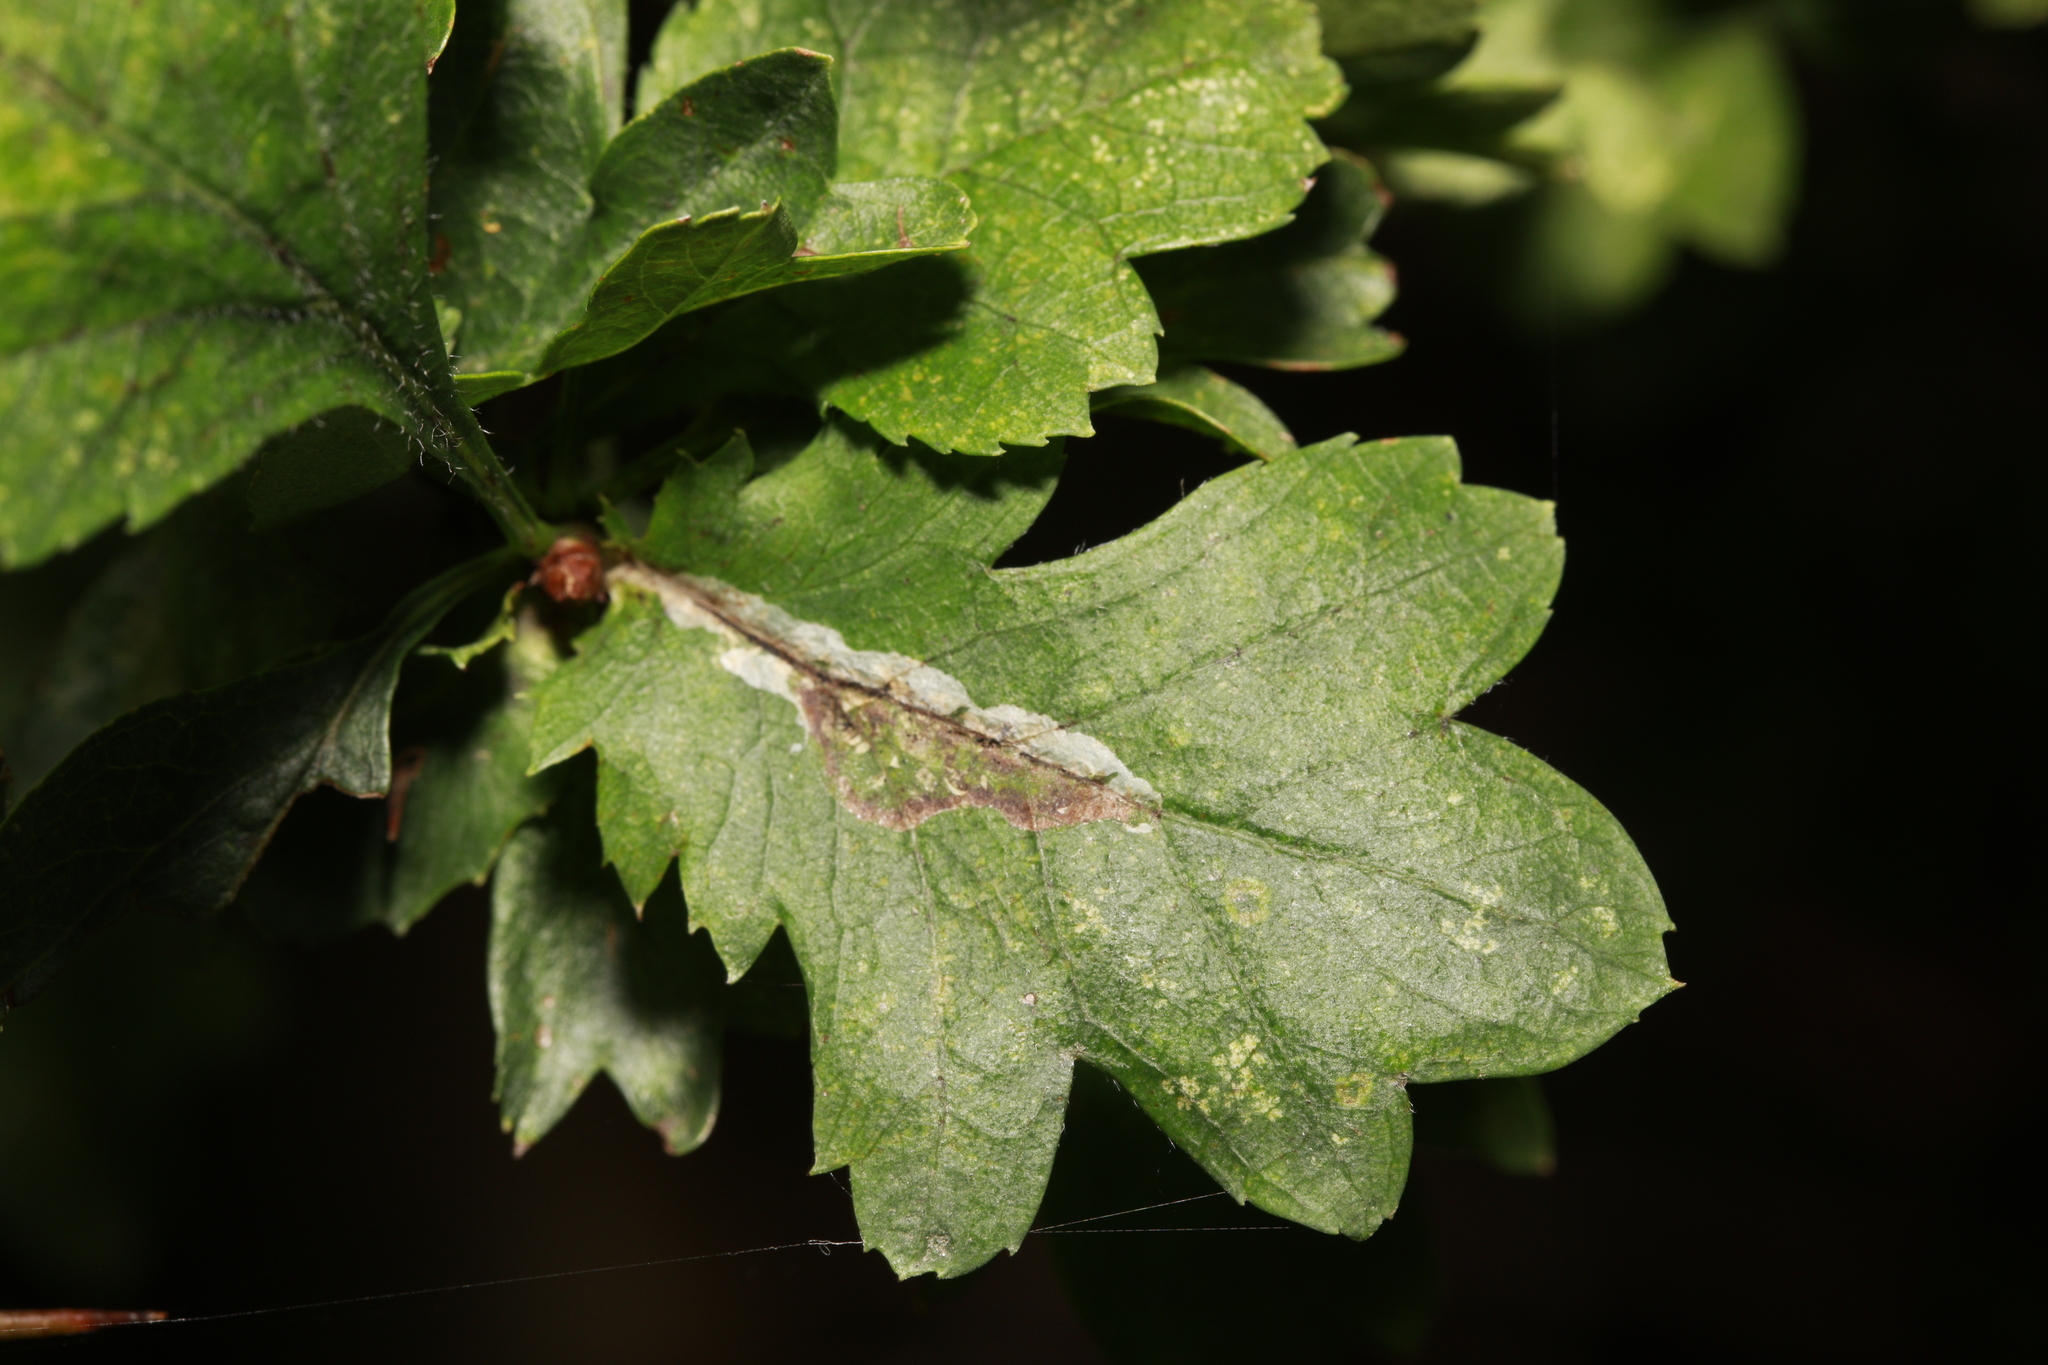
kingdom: Animalia
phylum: Arthropoda
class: Insecta
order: Lepidoptera
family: Gracillariidae
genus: Phyllonorycter
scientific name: Phyllonorycter leucographella
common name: Firethorn leaf-miner
